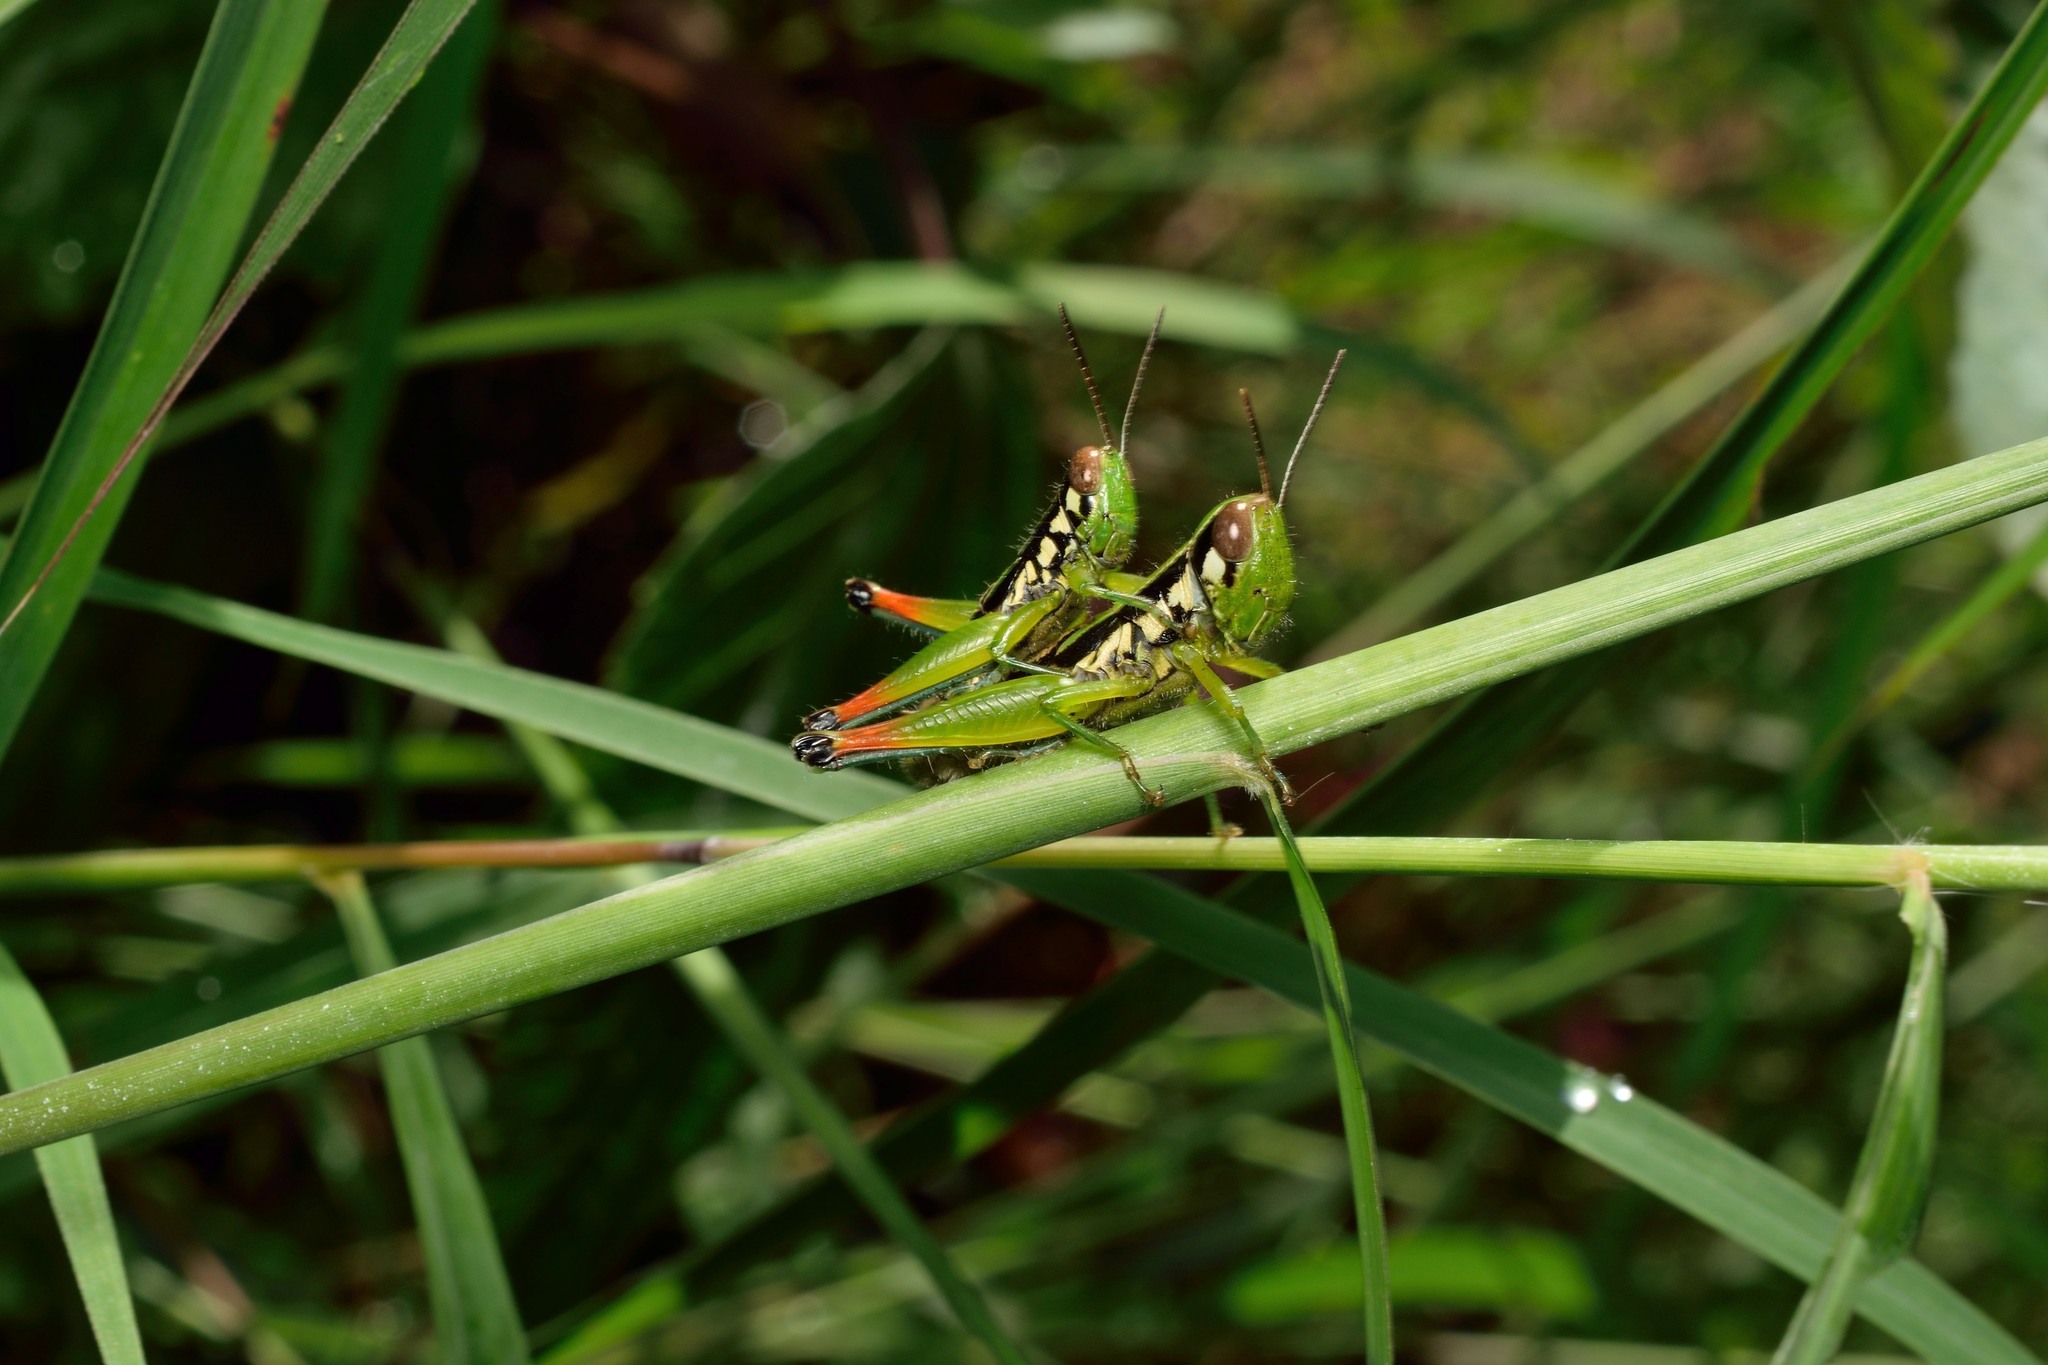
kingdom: Animalia
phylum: Arthropoda
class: Insecta
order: Orthoptera
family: Acrididae
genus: Caryanda
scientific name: Caryanda cachara
